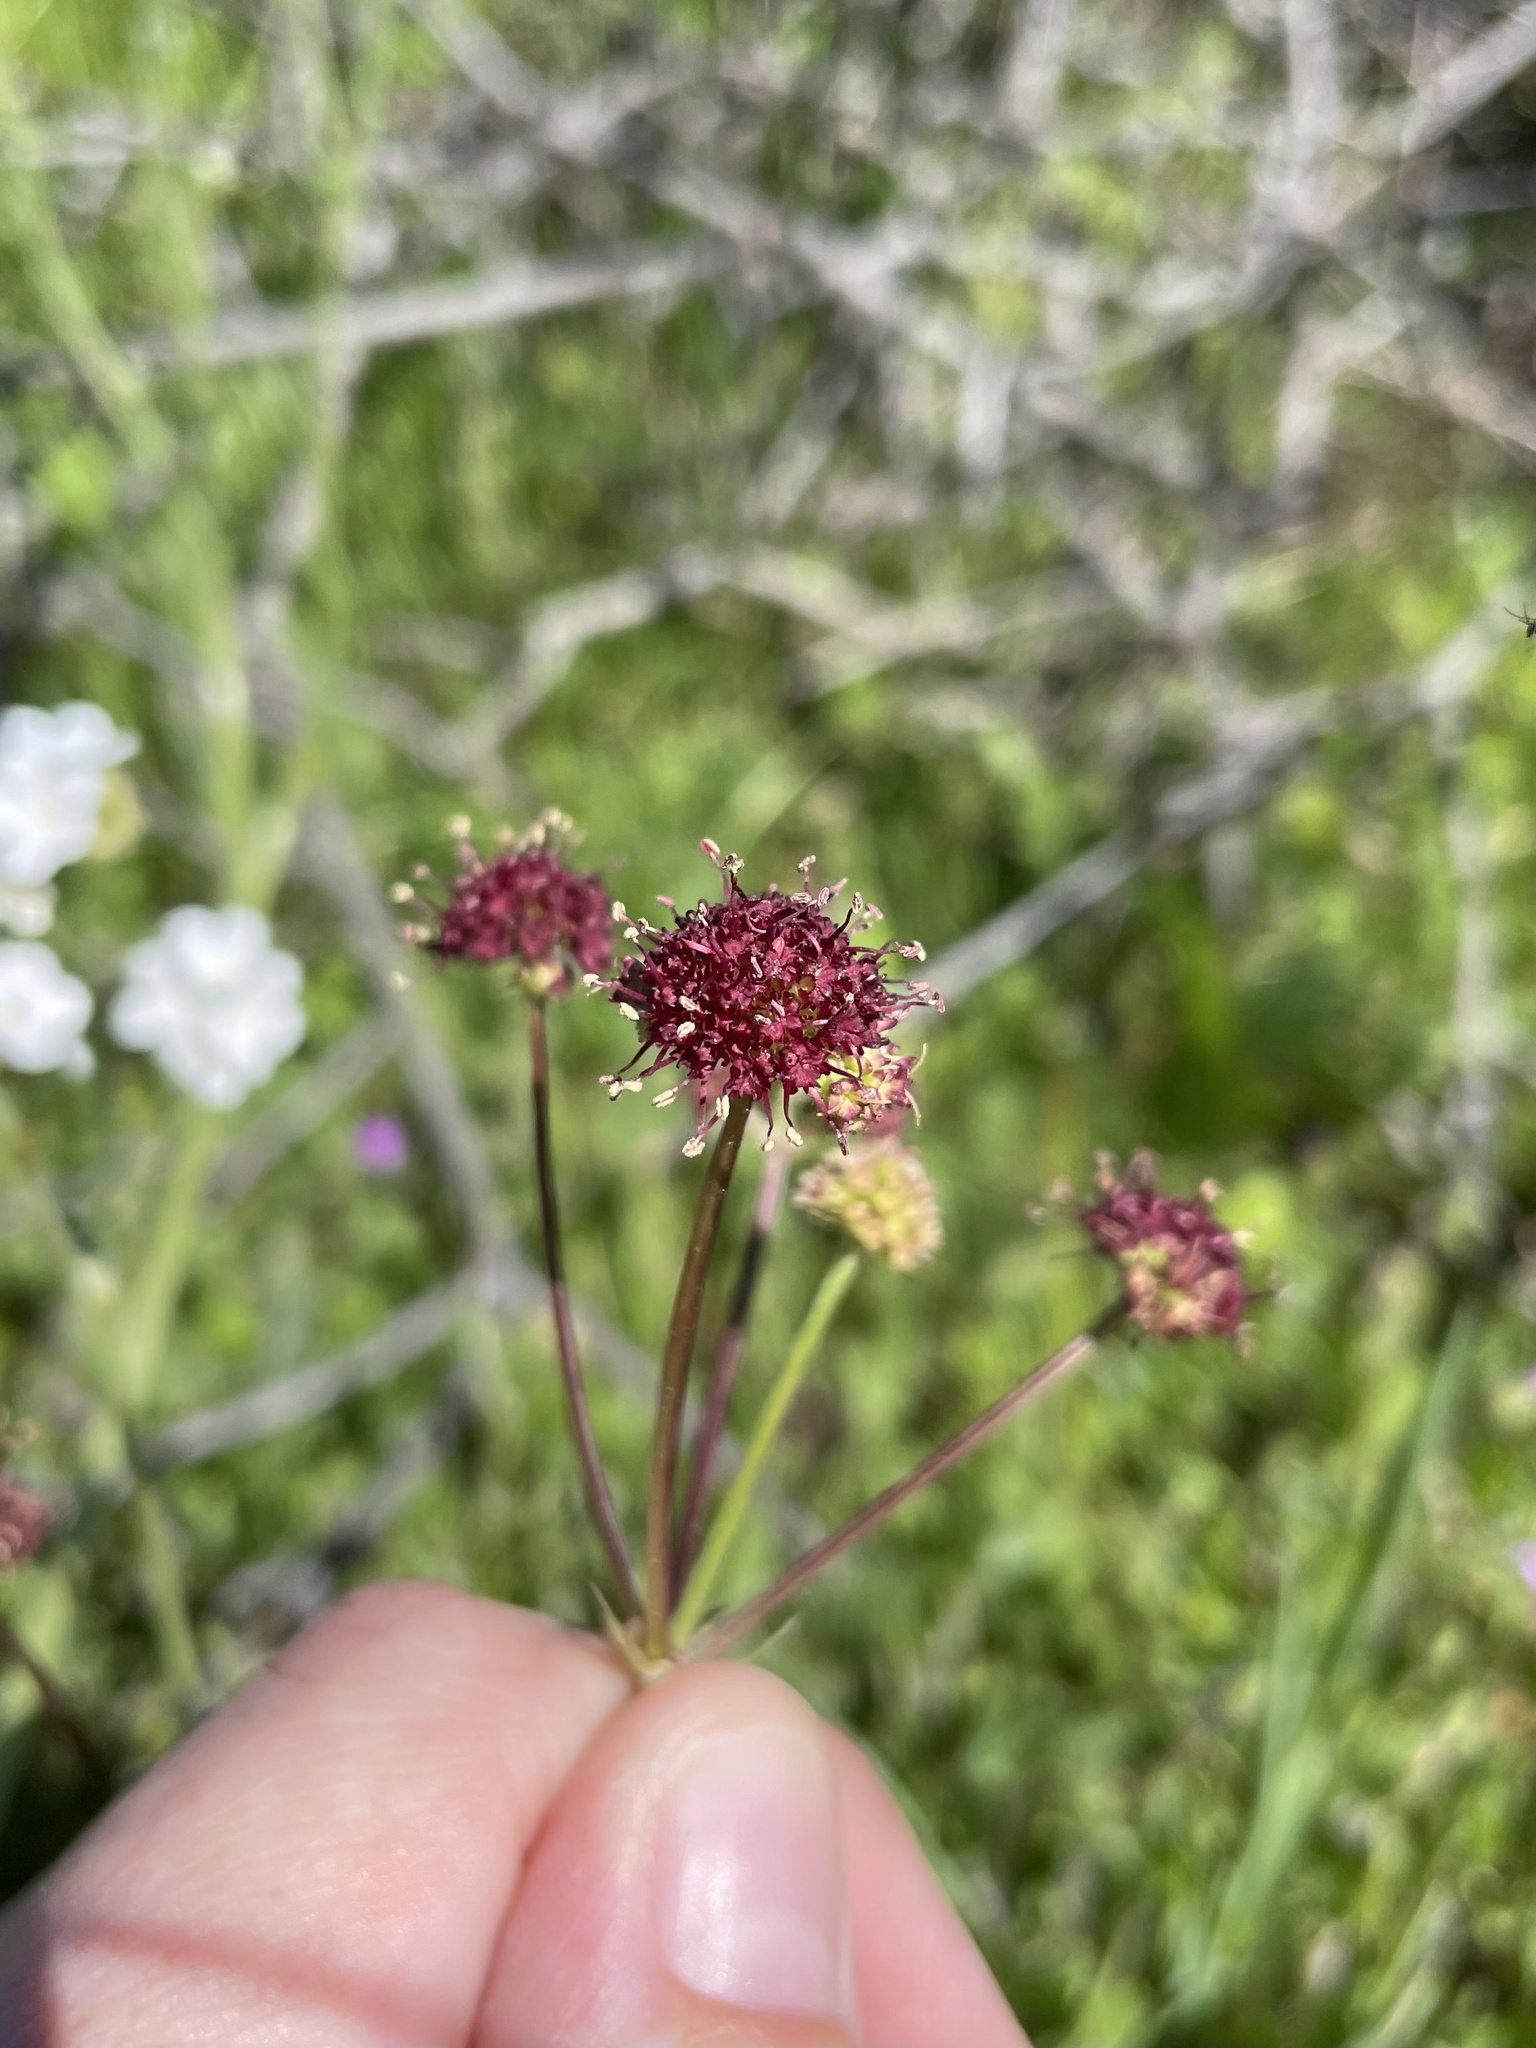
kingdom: Plantae
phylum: Tracheophyta
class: Magnoliopsida
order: Apiales
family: Apiaceae
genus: Sanicula
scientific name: Sanicula bipinnatifida
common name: Shoe-buttons
